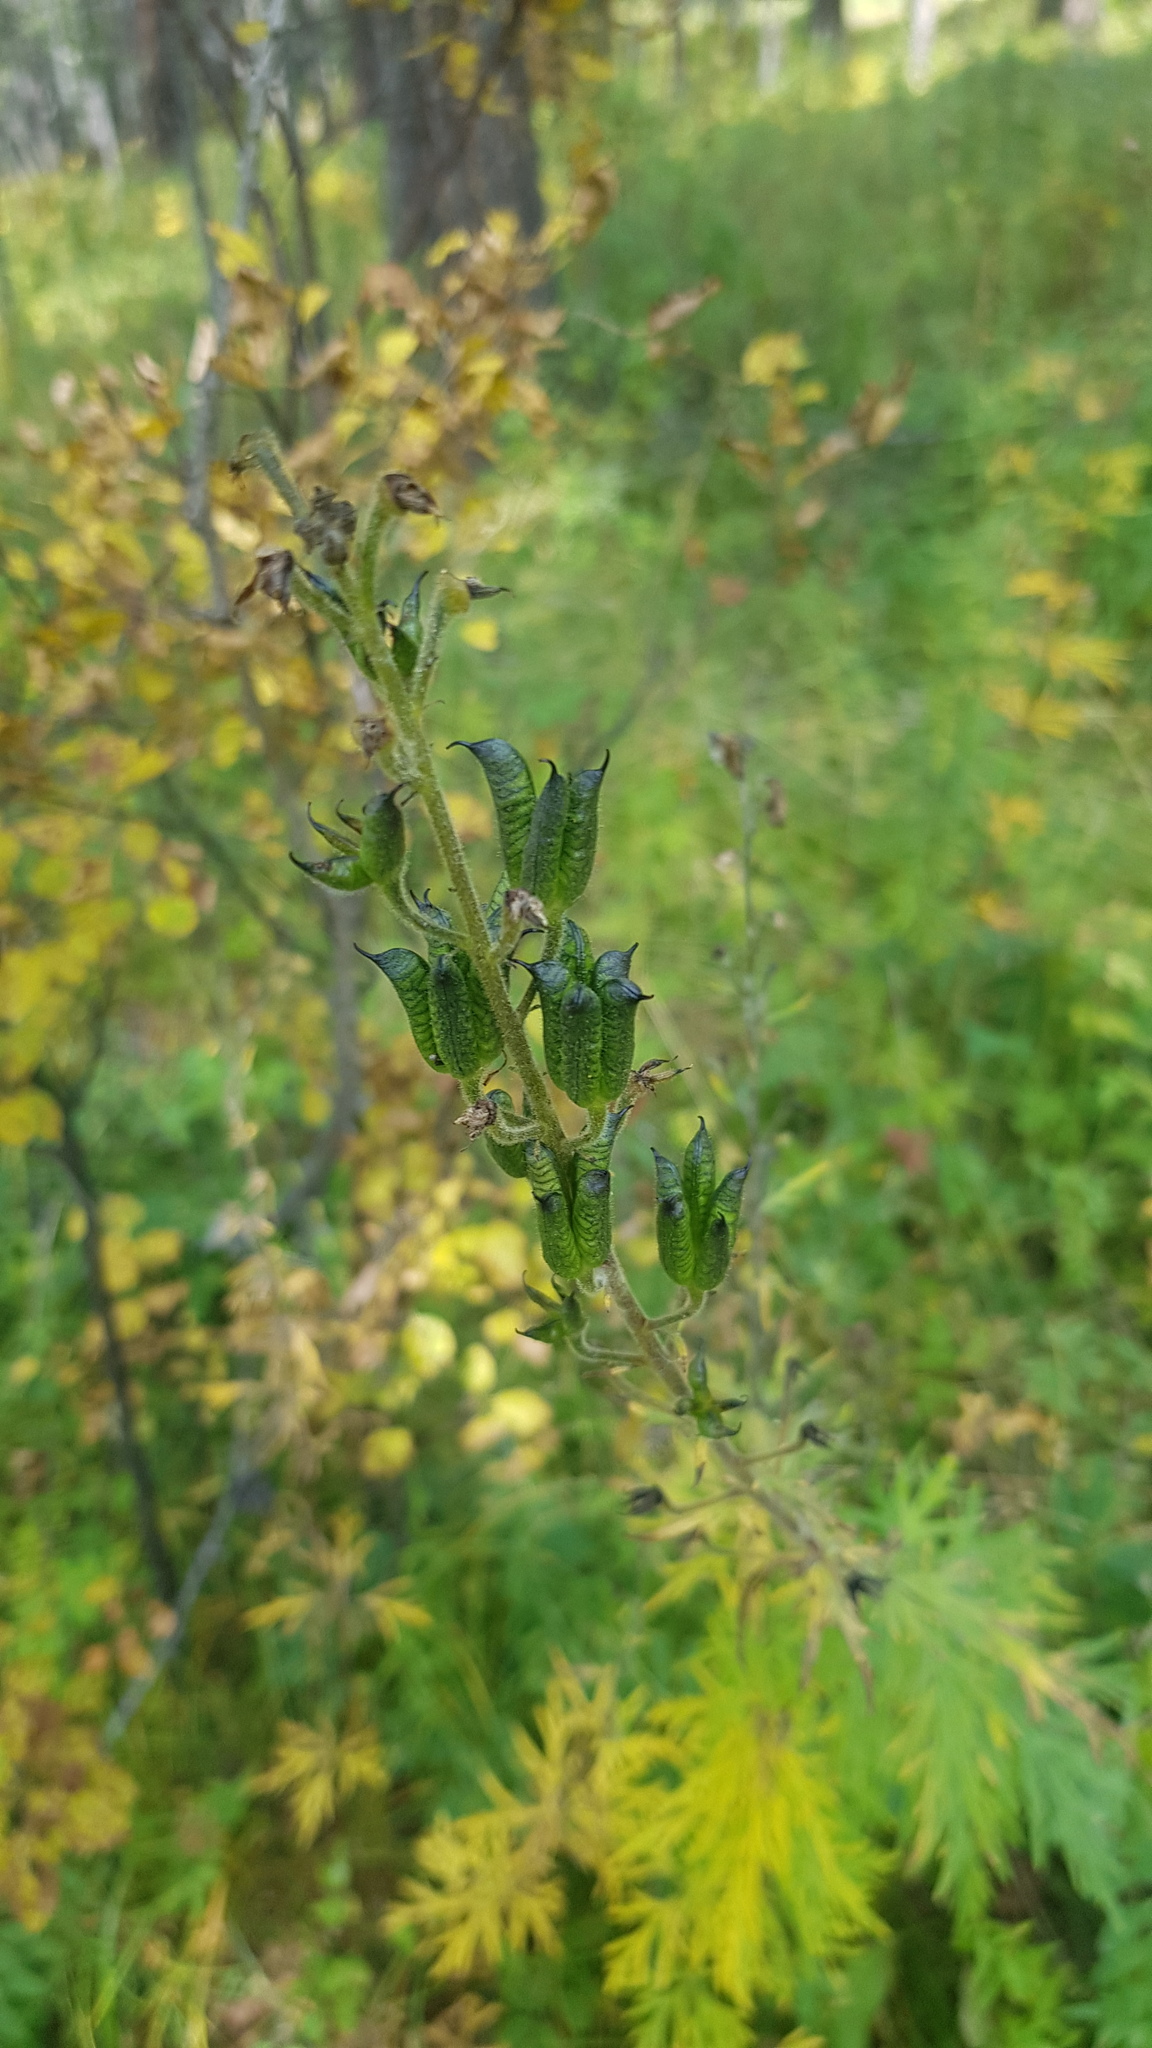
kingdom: Plantae
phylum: Tracheophyta
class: Magnoliopsida
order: Ranunculales
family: Ranunculaceae
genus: Aconitum
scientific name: Aconitum septentrionale
